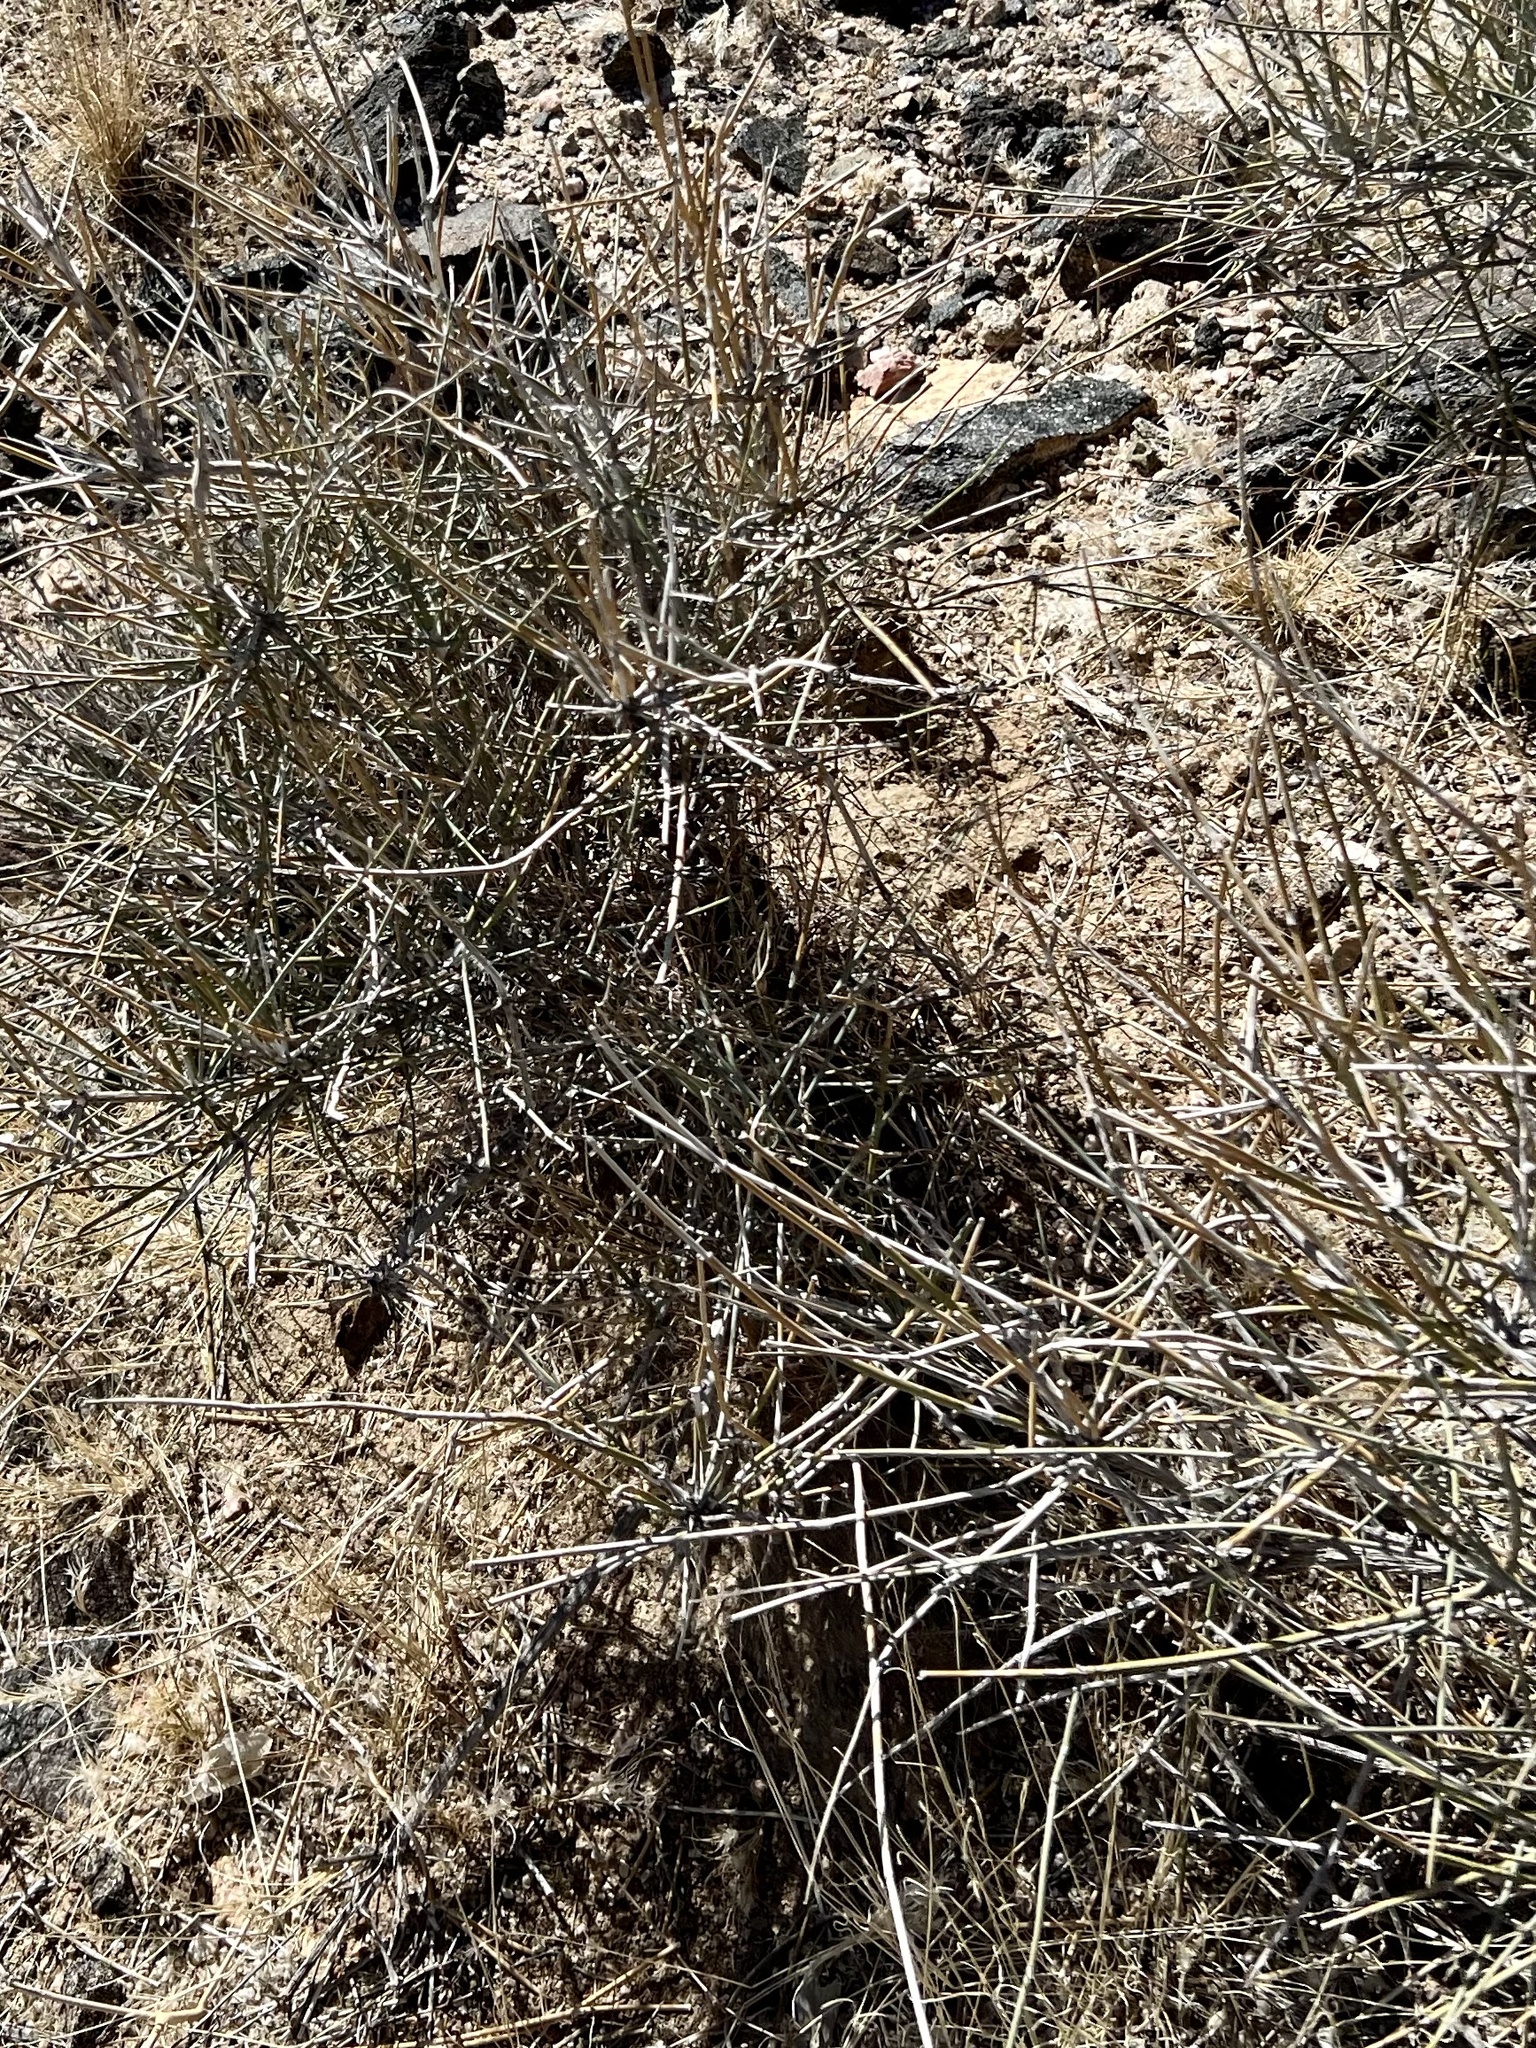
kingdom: Plantae
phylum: Tracheophyta
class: Gnetopsida
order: Ephedrales
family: Ephedraceae
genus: Ephedra
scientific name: Ephedra nevadensis
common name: Gray ephedra
